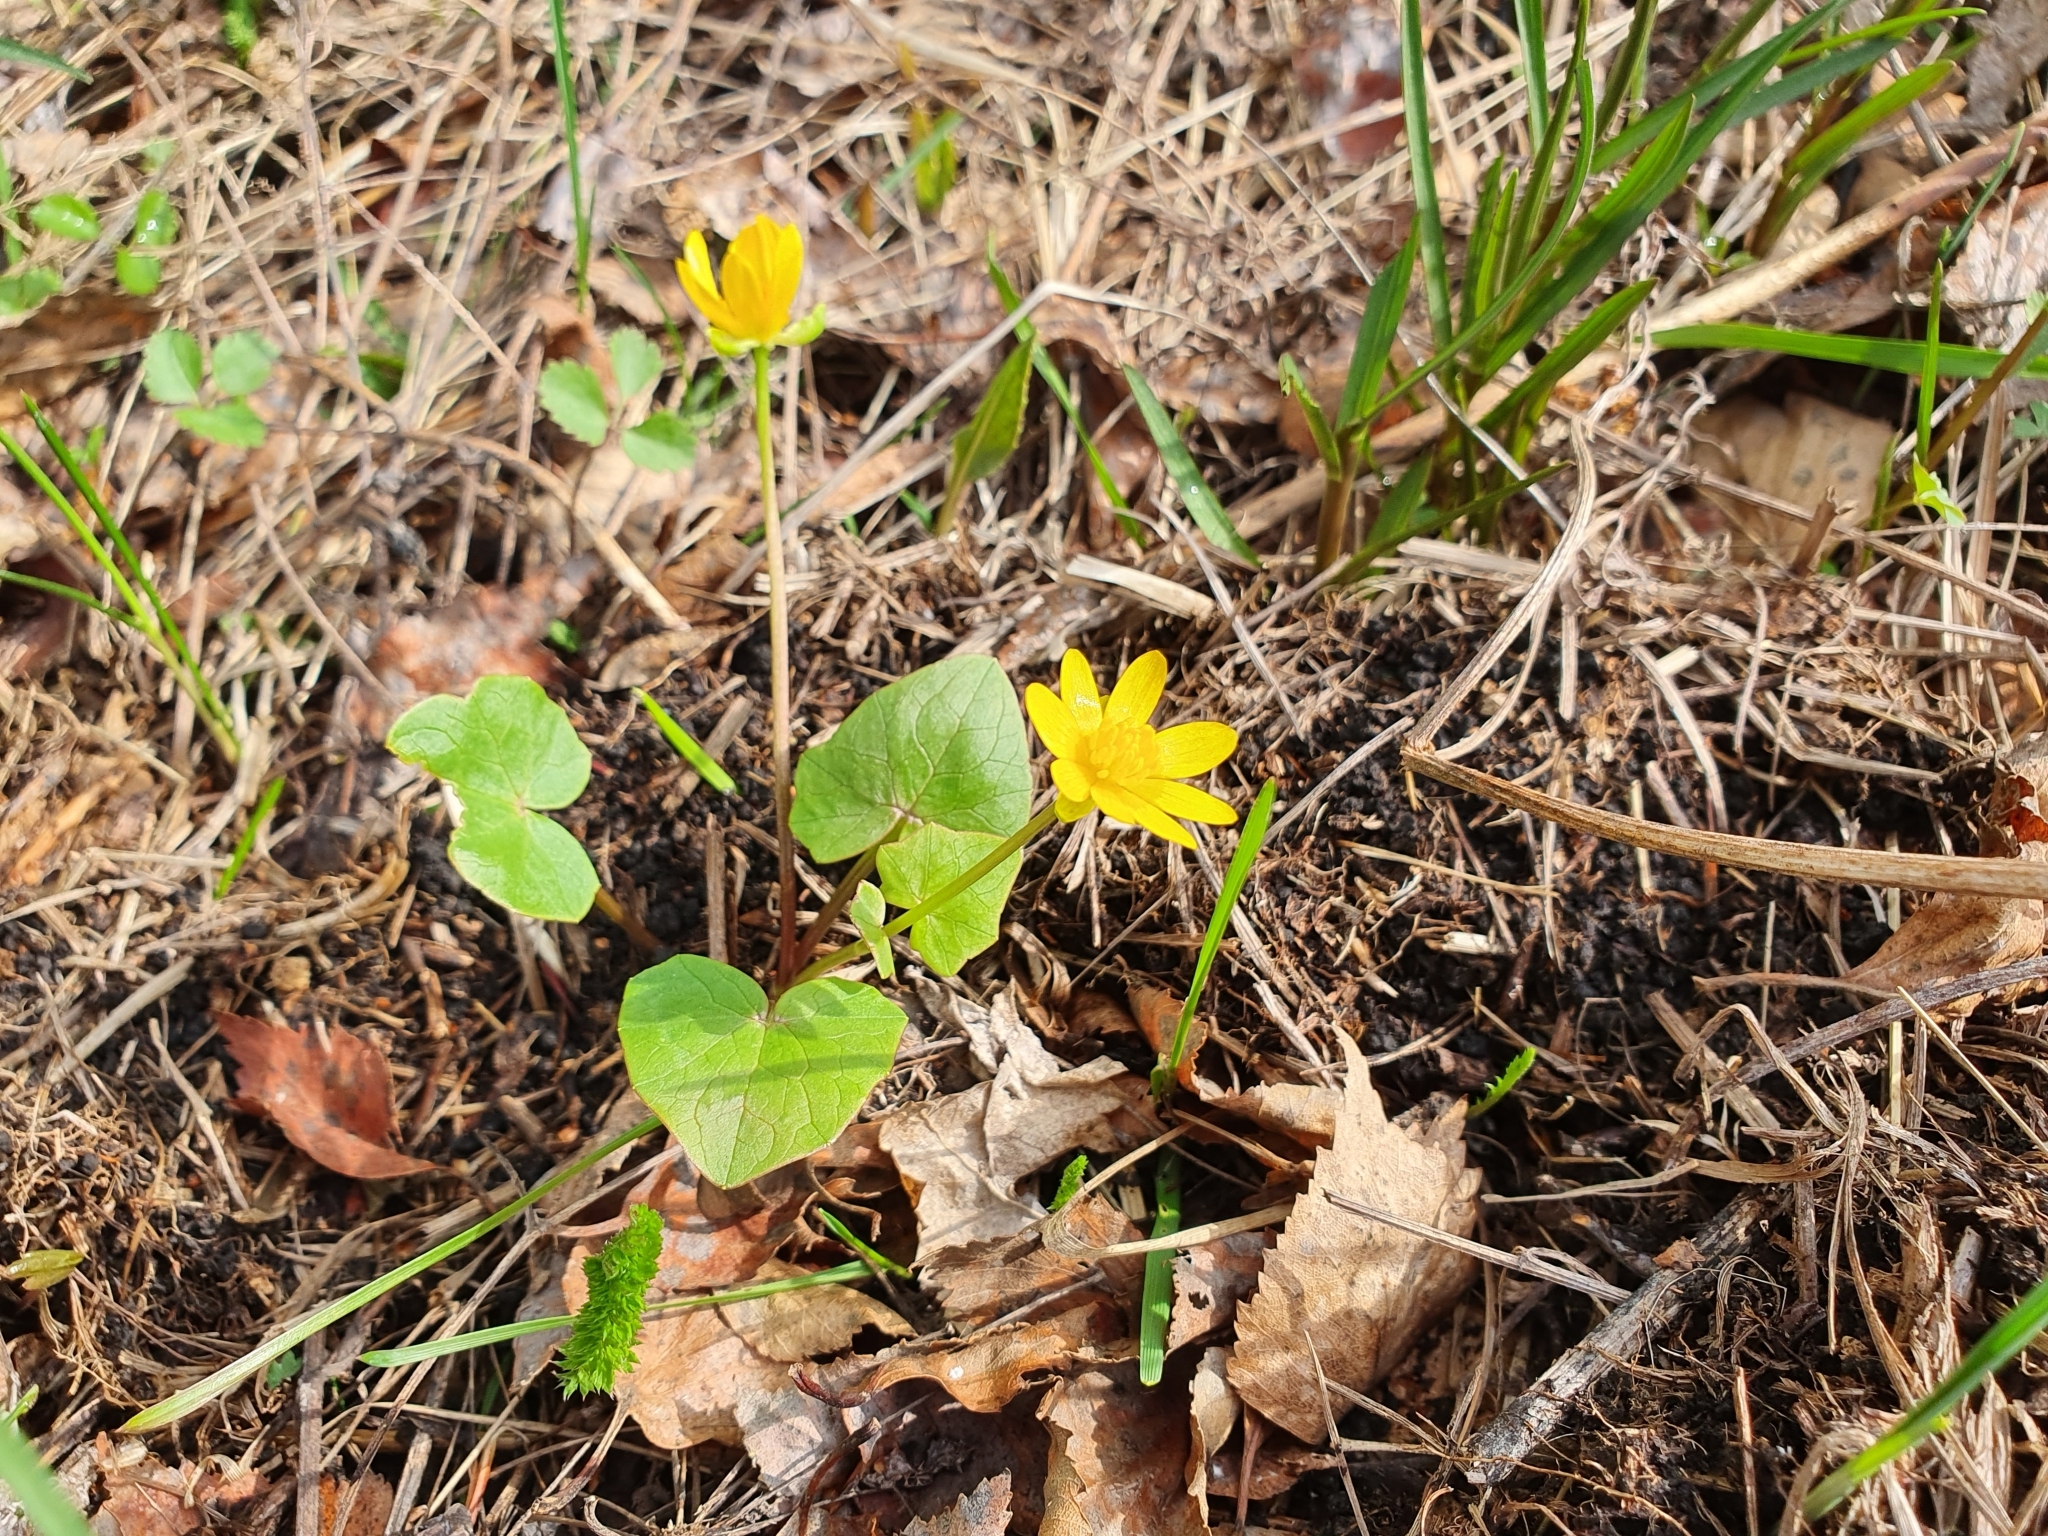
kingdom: Plantae
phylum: Tracheophyta
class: Magnoliopsida
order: Ranunculales
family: Ranunculaceae
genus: Ficaria
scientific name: Ficaria verna
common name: Lesser celandine
